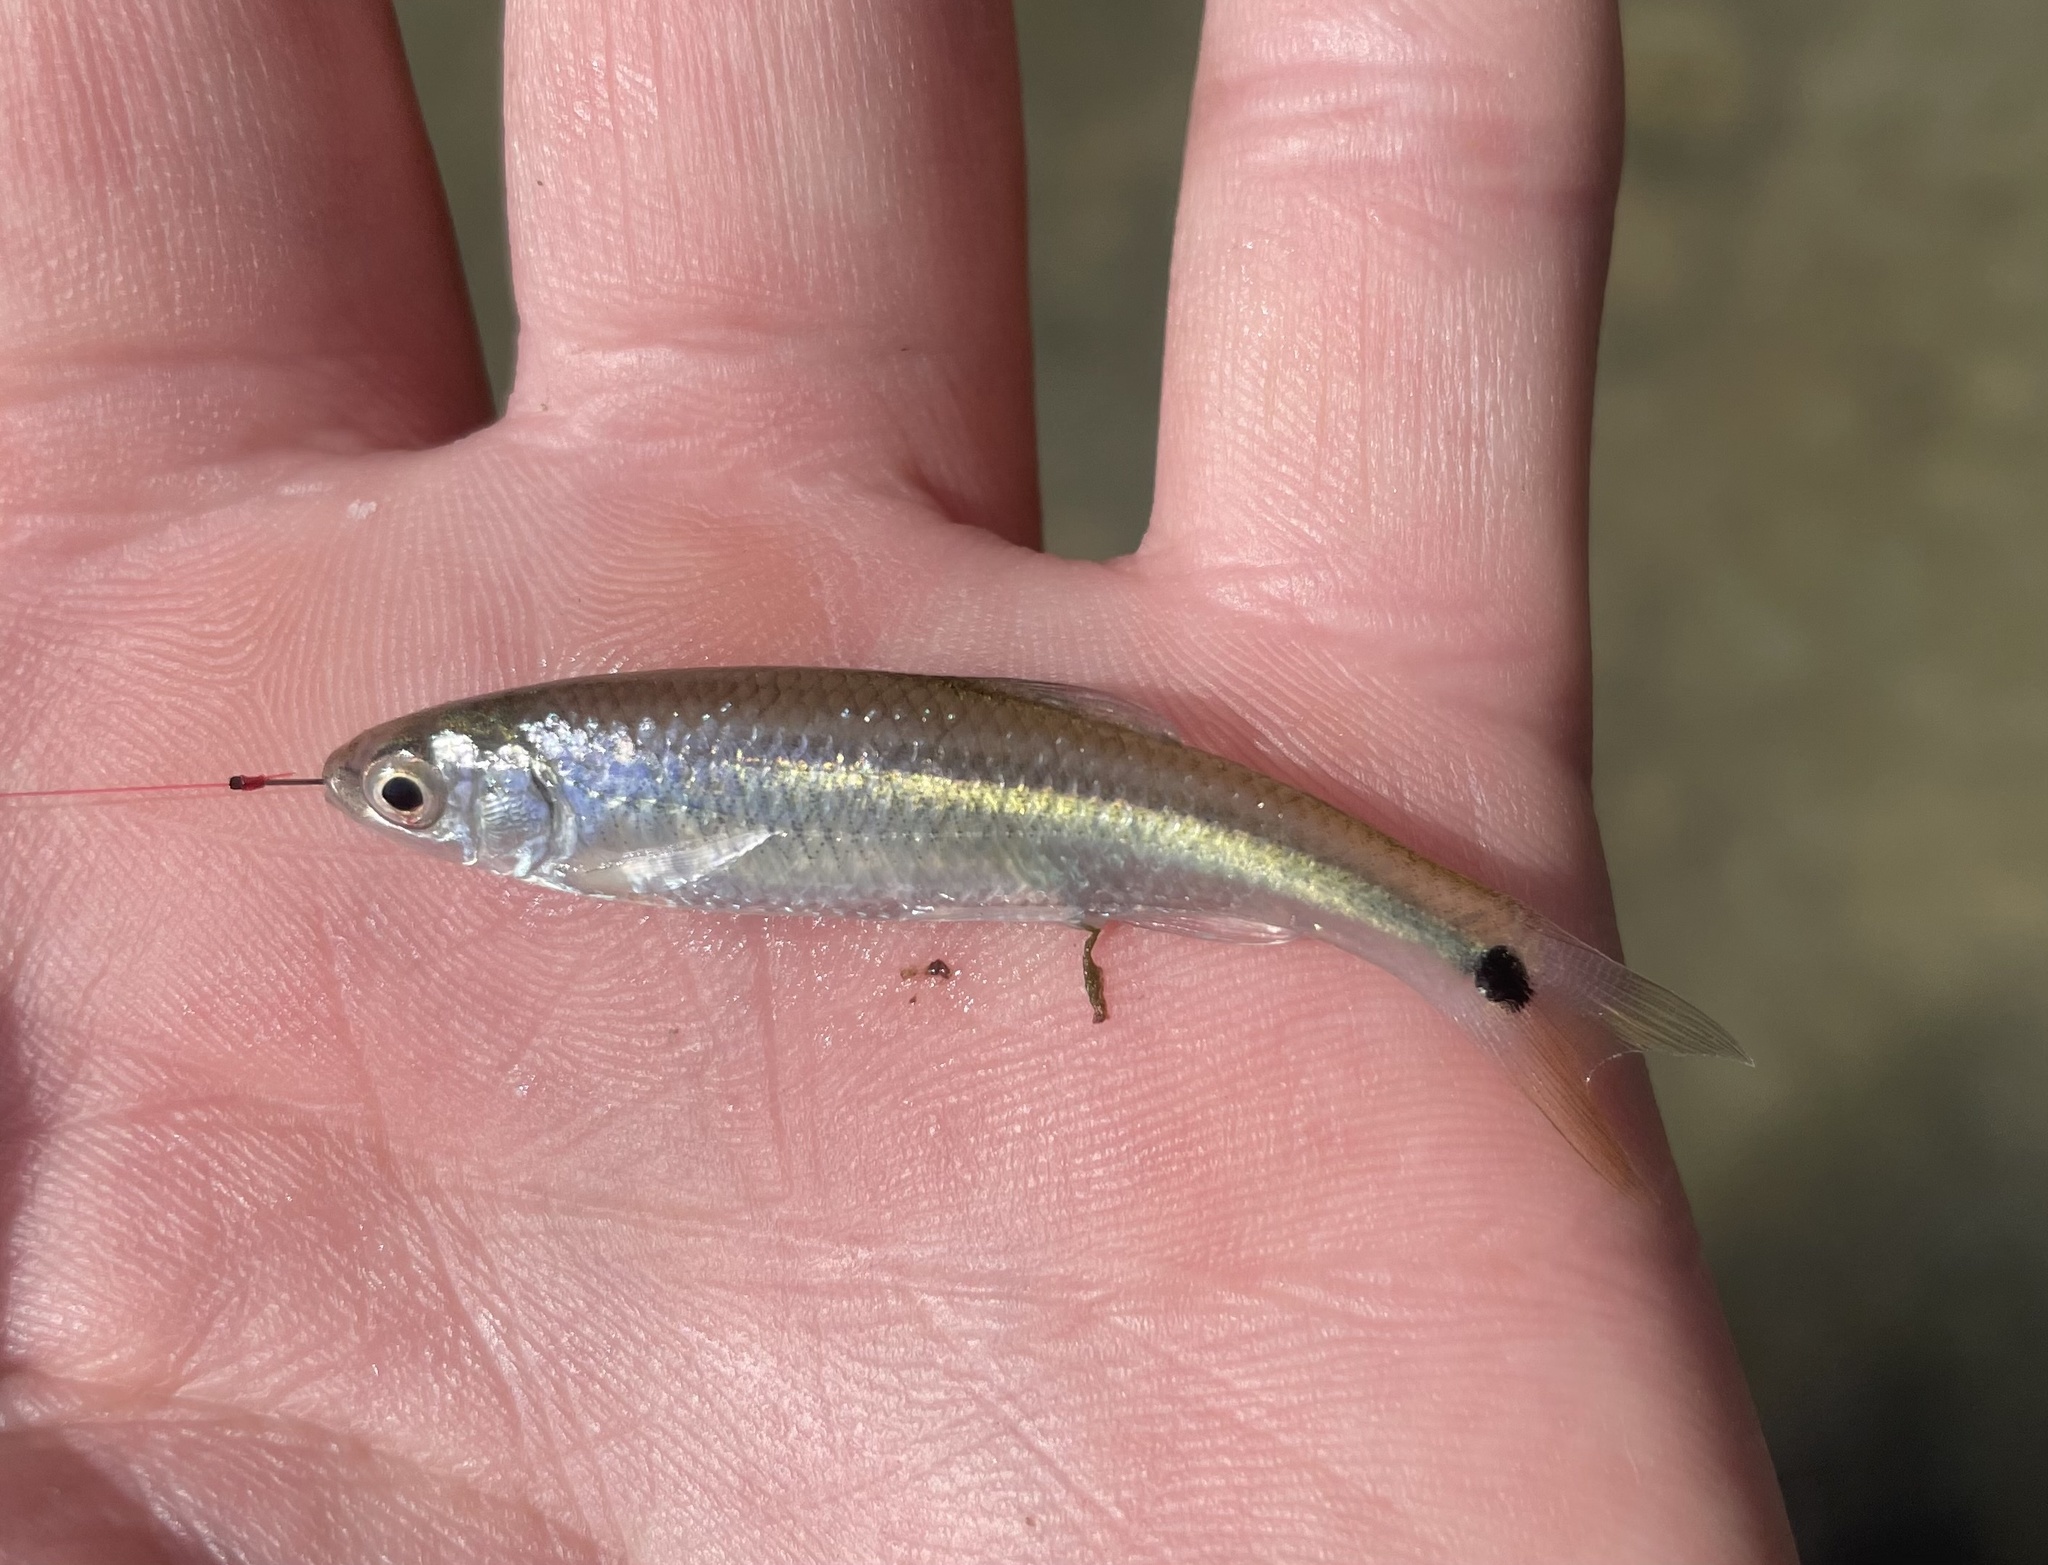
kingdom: Animalia
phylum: Chordata
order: Cypriniformes
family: Cyprinidae
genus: Cyprinella
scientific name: Cyprinella venusta
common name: Blacktail shiner
